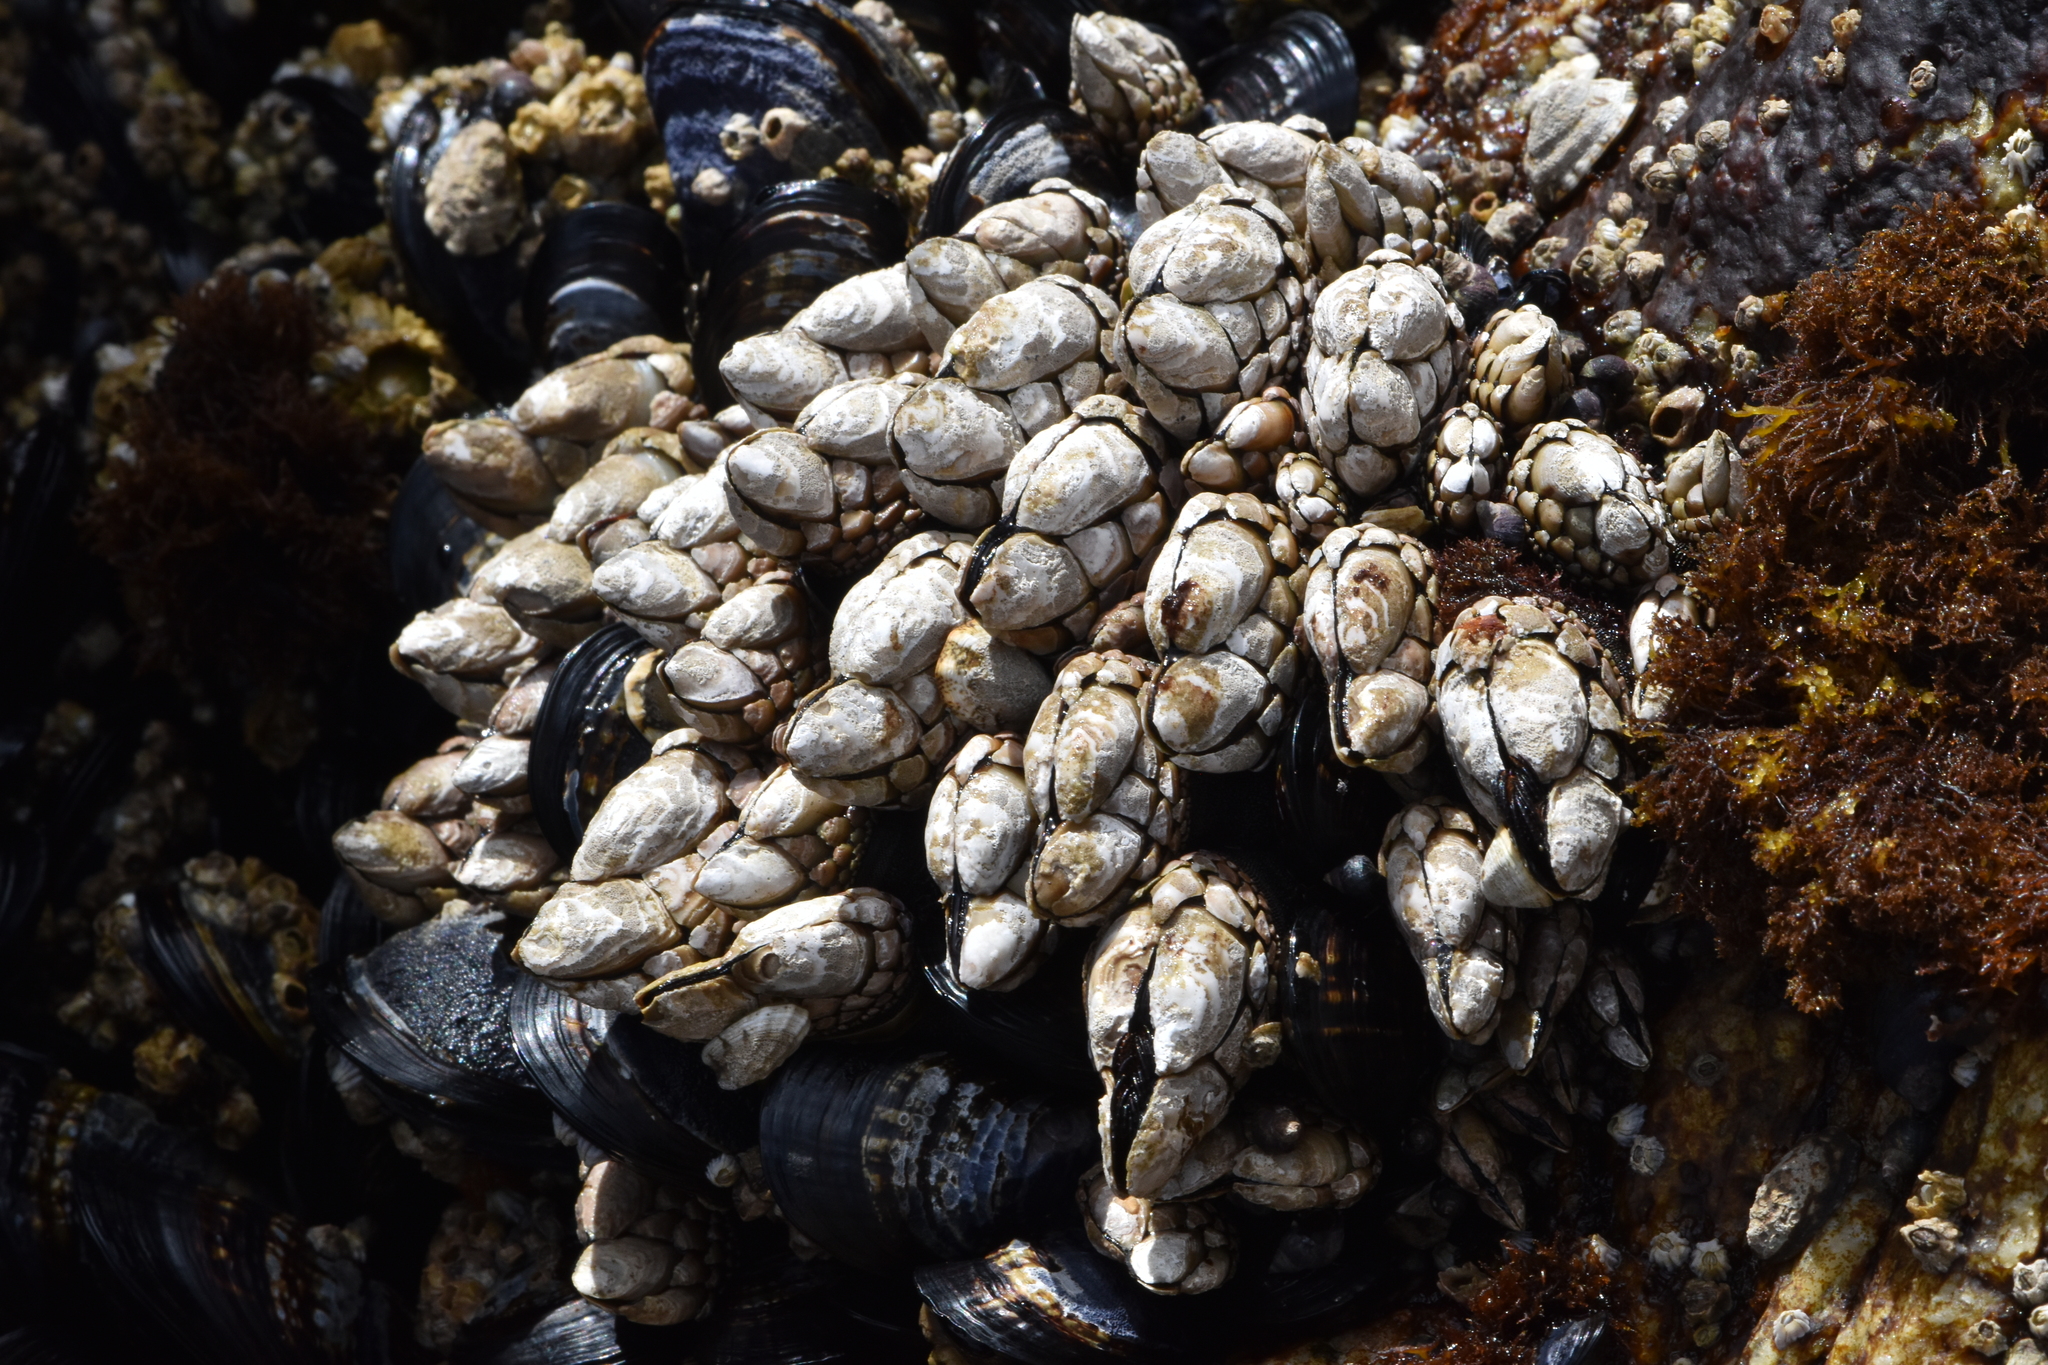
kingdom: Animalia
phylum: Arthropoda
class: Maxillopoda
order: Pedunculata
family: Pollicipedidae
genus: Pollicipes
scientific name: Pollicipes polymerus
